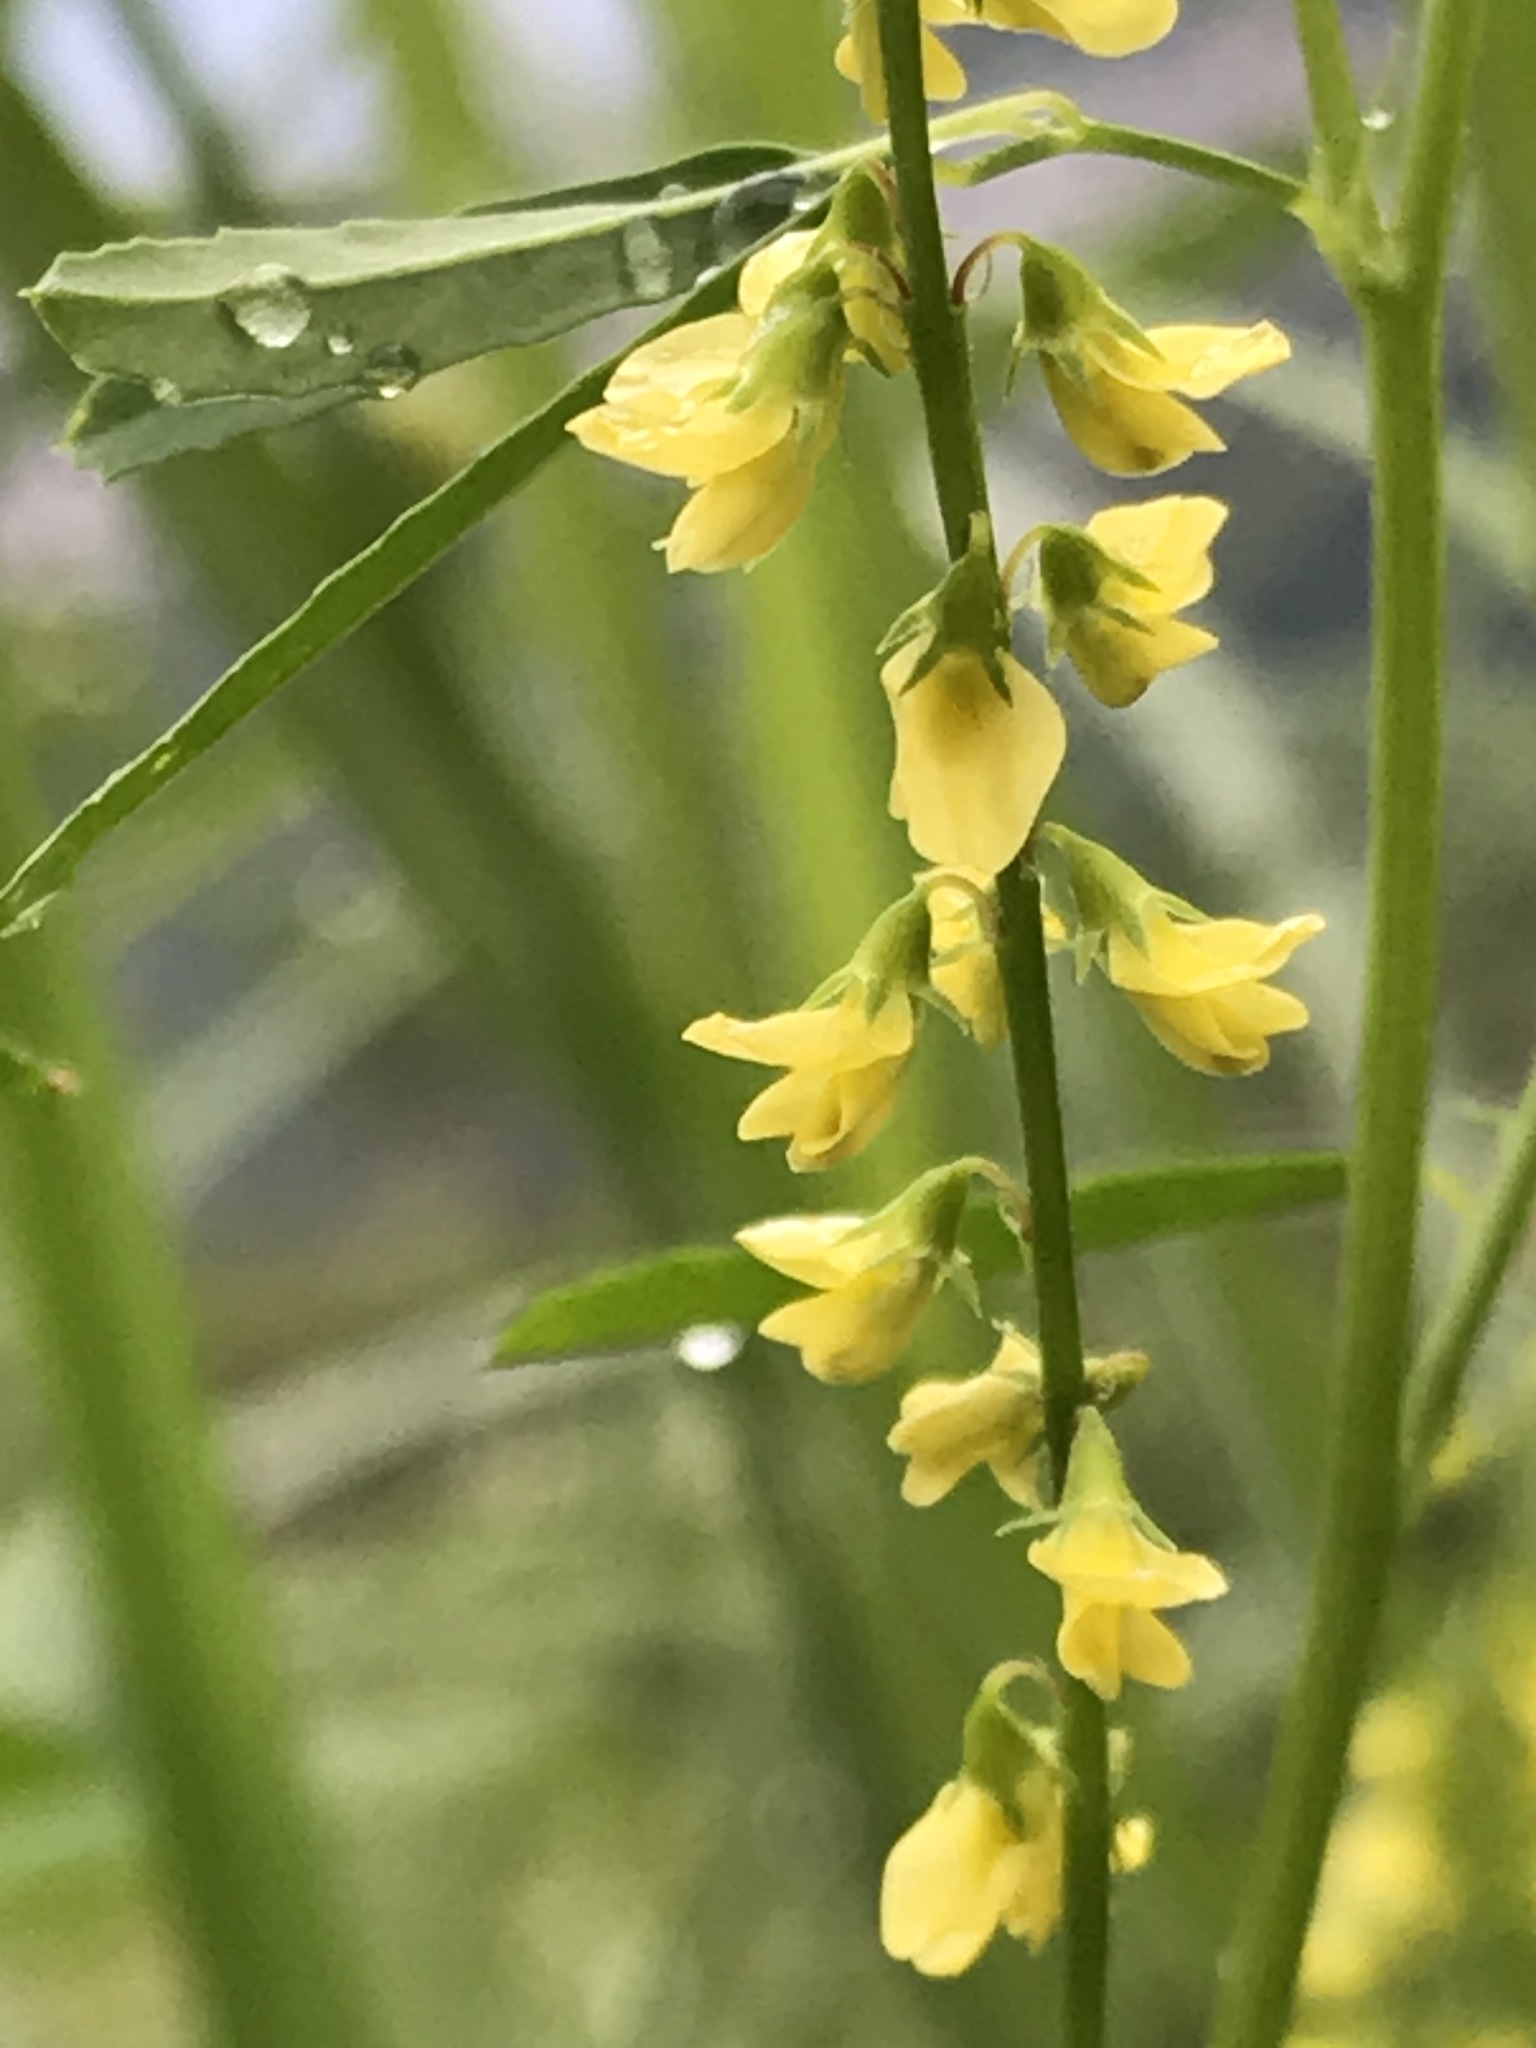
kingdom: Plantae
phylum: Tracheophyta
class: Magnoliopsida
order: Fabales
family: Fabaceae
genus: Melilotus
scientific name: Melilotus indicus
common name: Small melilot
